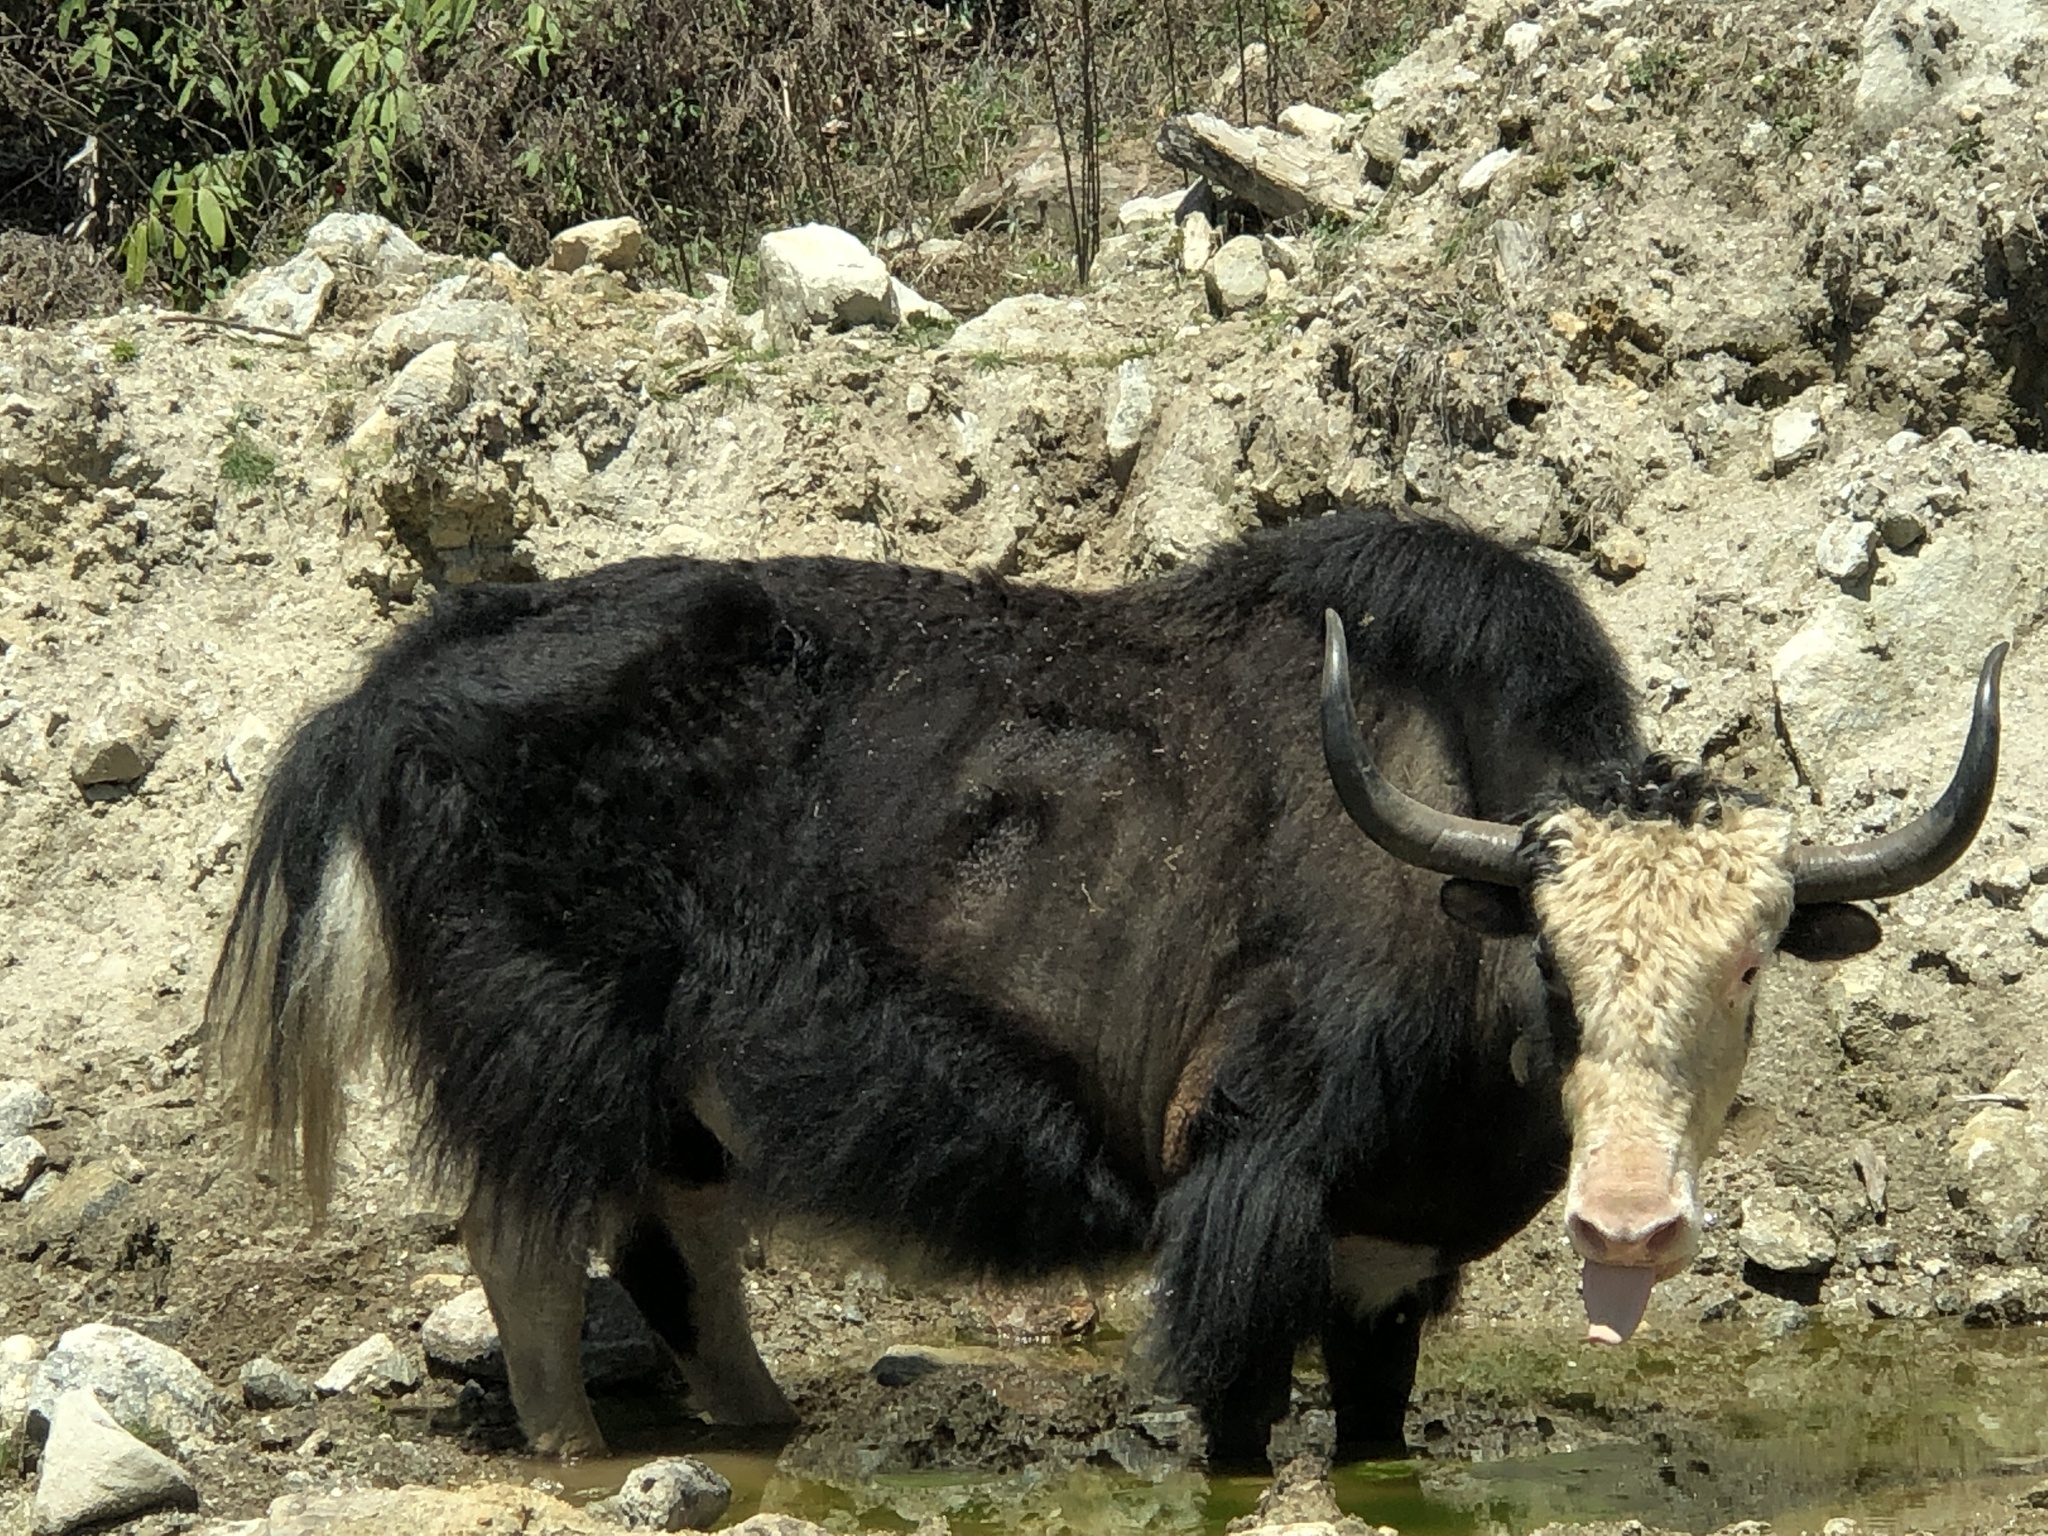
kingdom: Animalia
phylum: Chordata
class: Mammalia
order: Artiodactyla
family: Bovidae
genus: Bos
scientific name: Bos grunniens
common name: Yak
